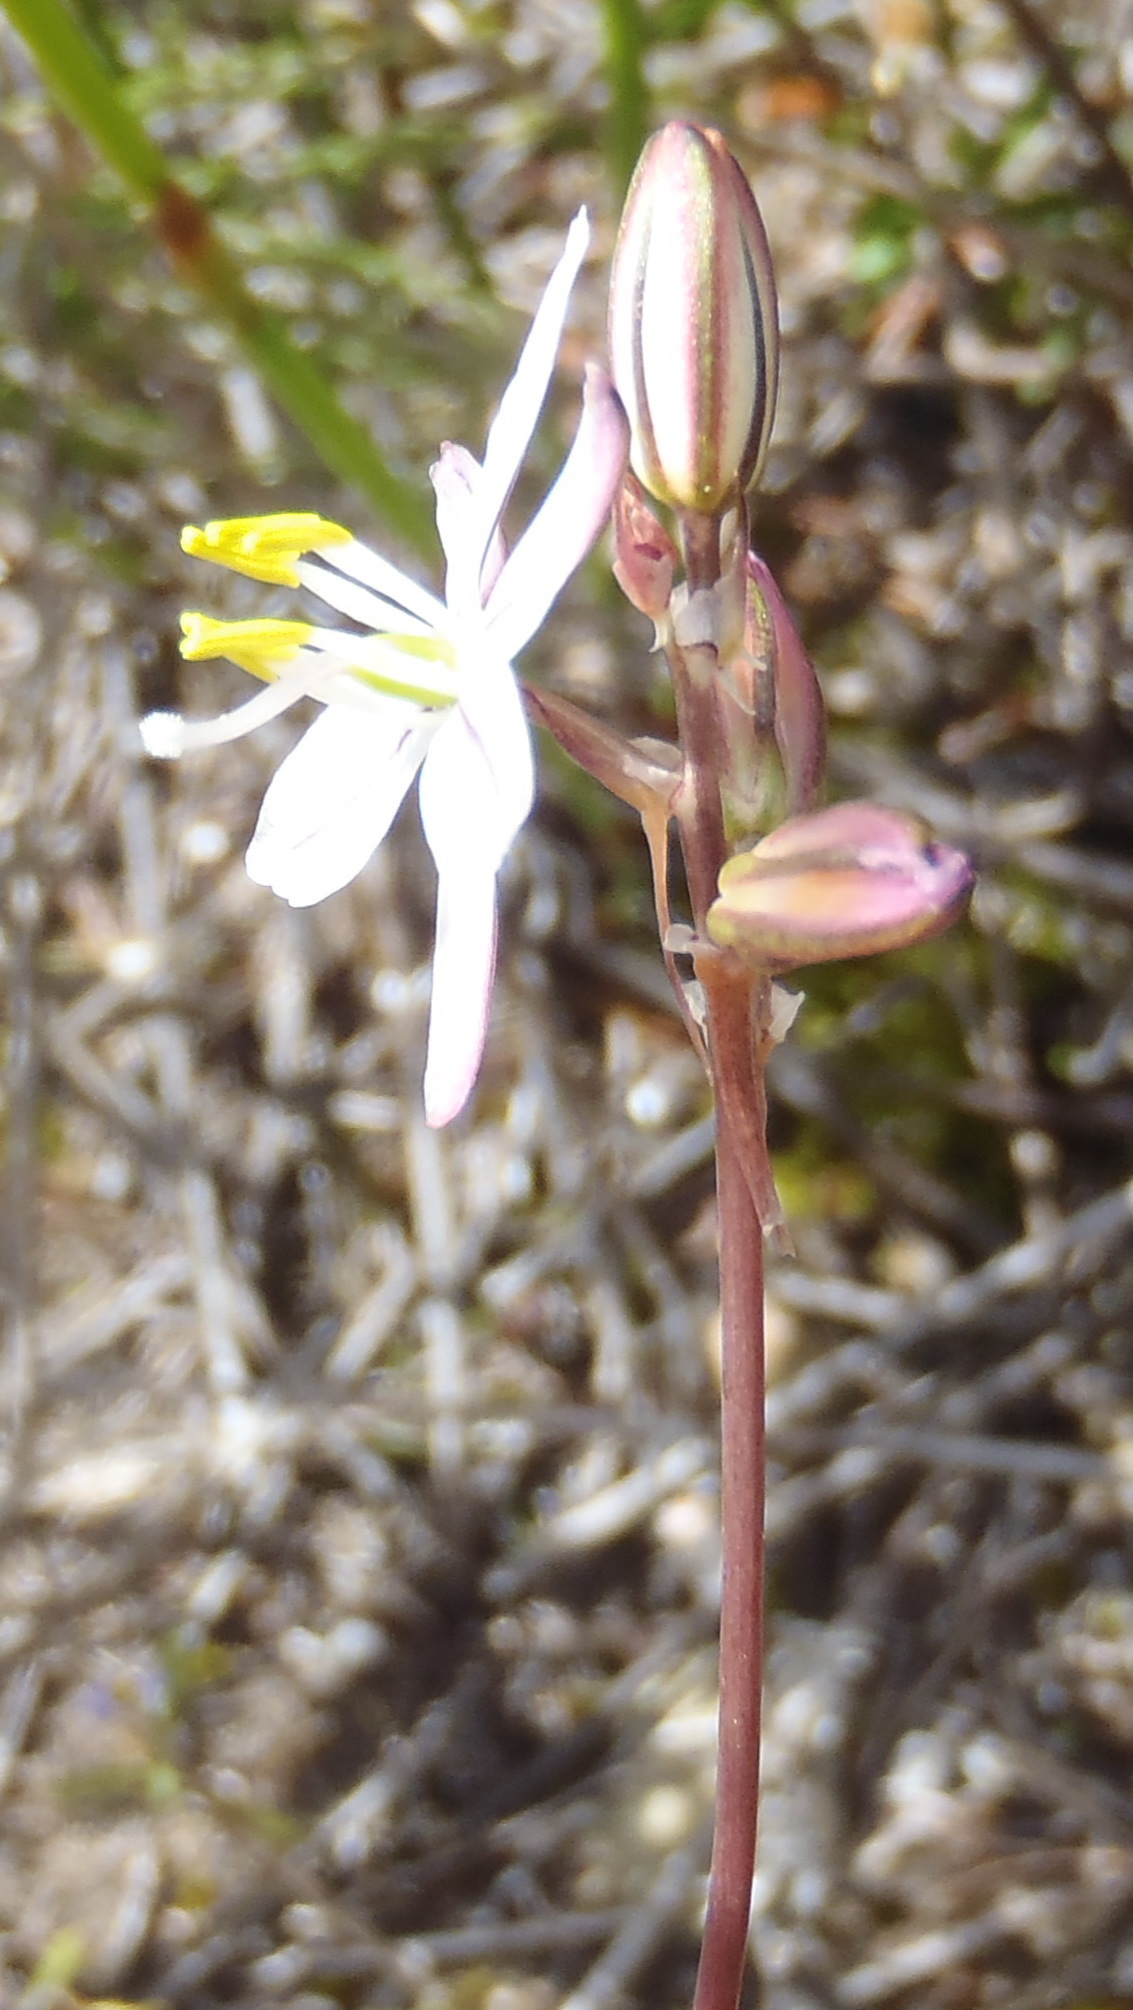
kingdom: Plantae
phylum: Tracheophyta
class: Liliopsida
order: Asparagales
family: Asparagaceae
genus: Drimia
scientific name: Drimia exuviata
